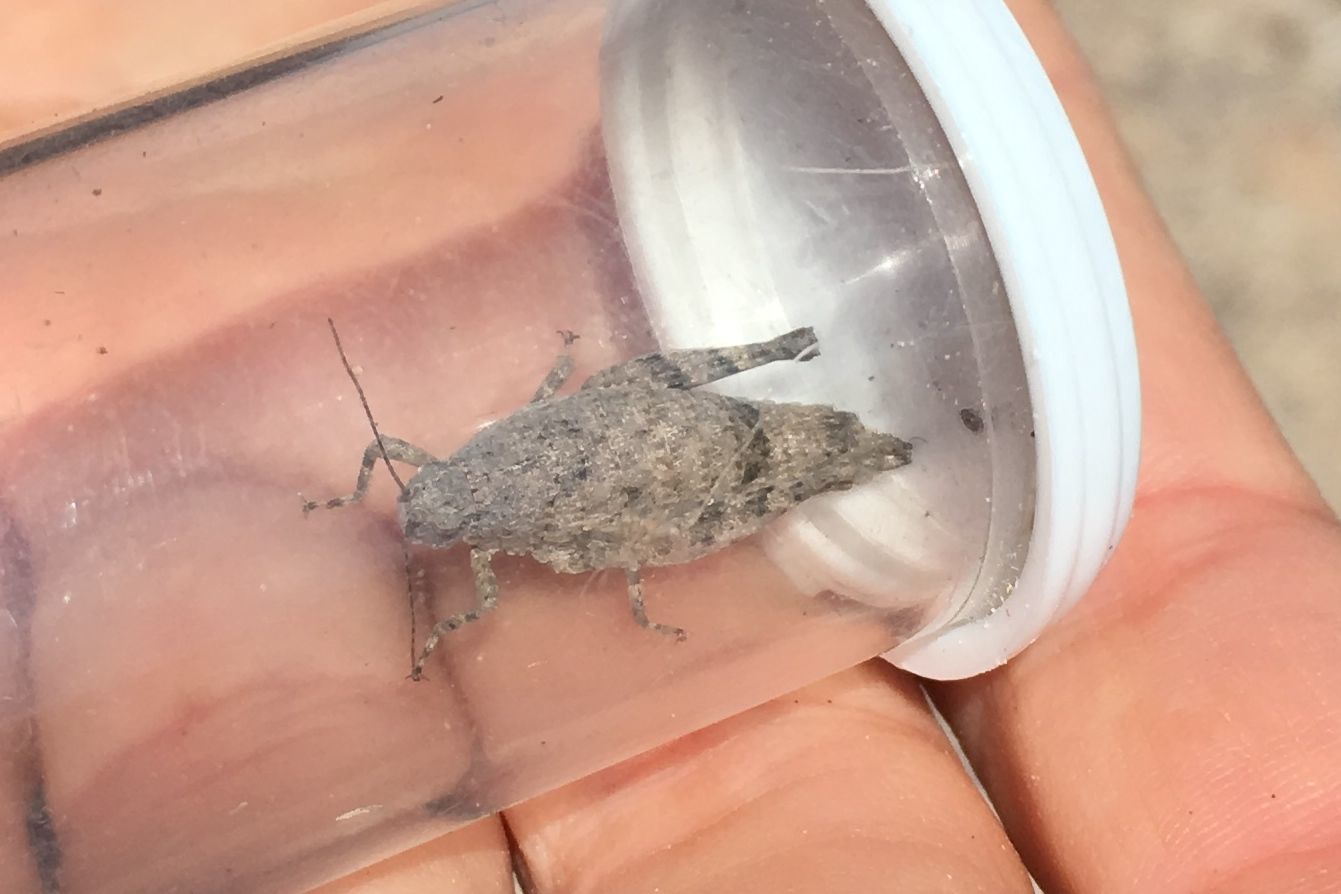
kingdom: Animalia
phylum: Arthropoda
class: Insecta
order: Orthoptera
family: Tanaoceridae
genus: Tanaocerus
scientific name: Tanaocerus koebelei
